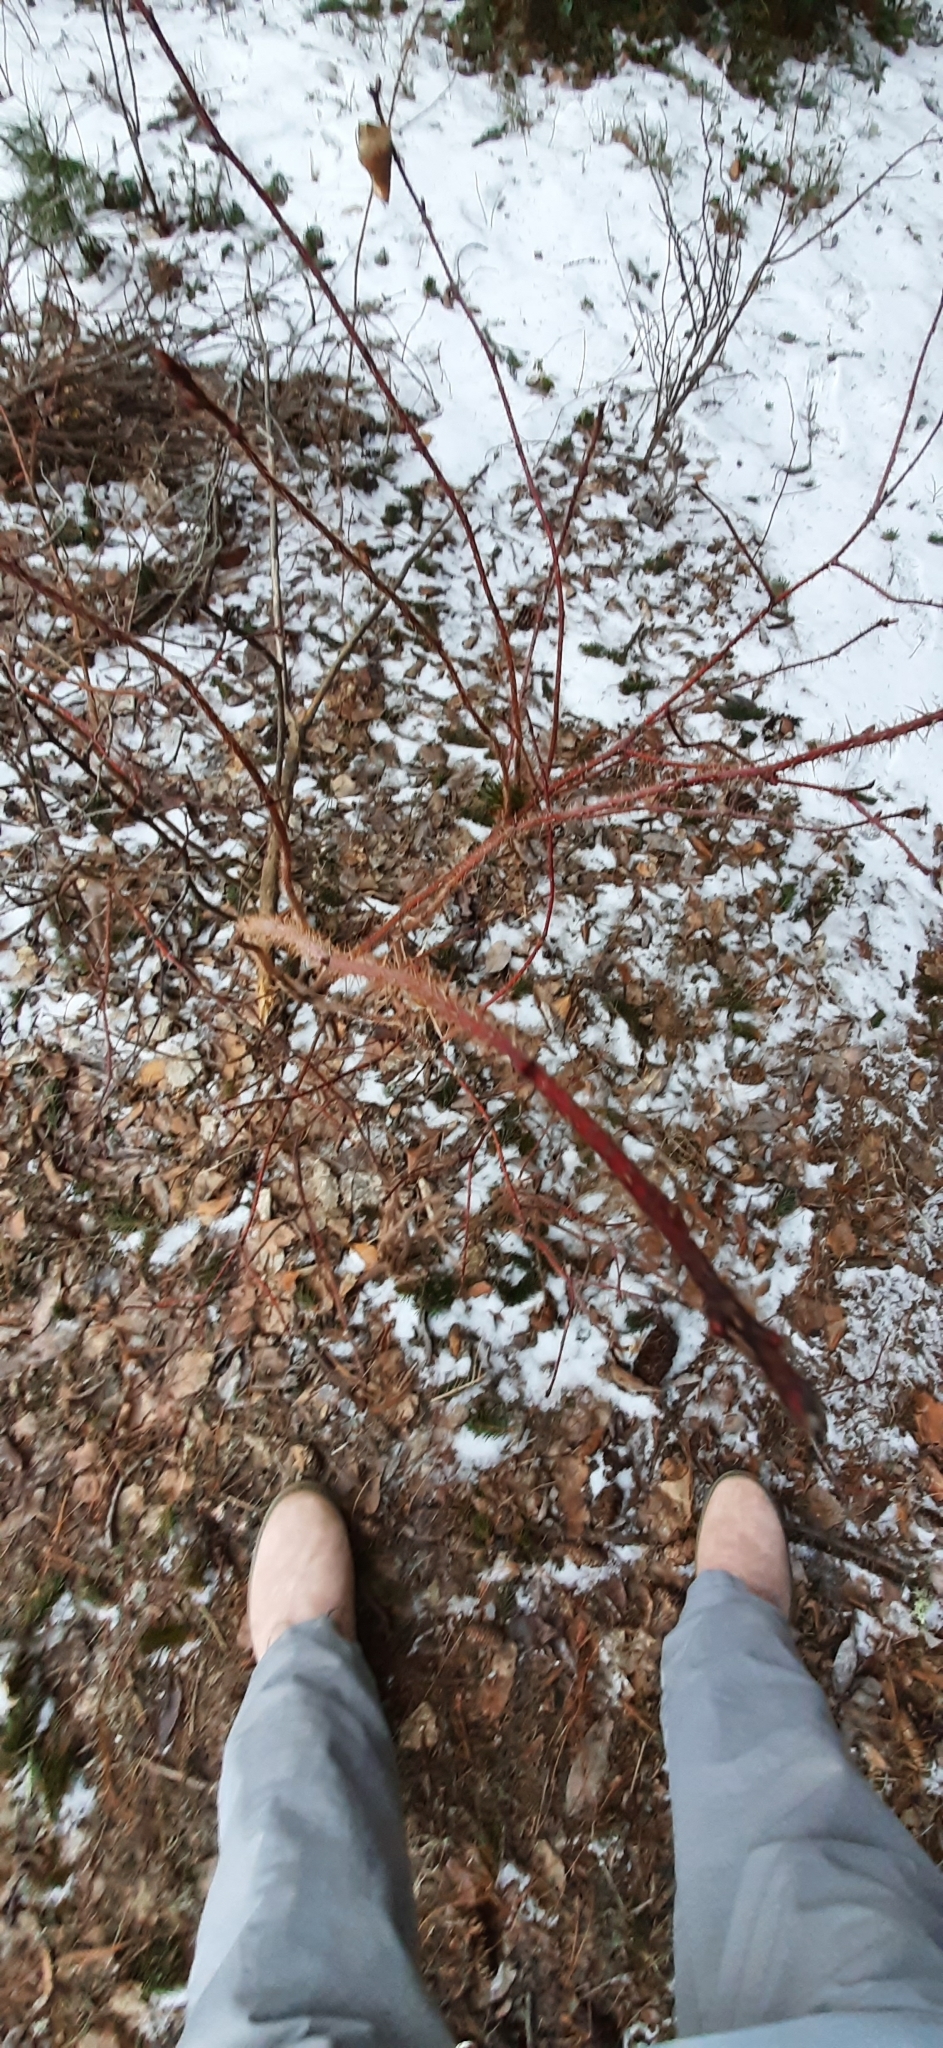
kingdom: Plantae
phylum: Tracheophyta
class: Magnoliopsida
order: Rosales
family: Rosaceae
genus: Rosa
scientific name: Rosa acicularis
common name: Prickly rose
